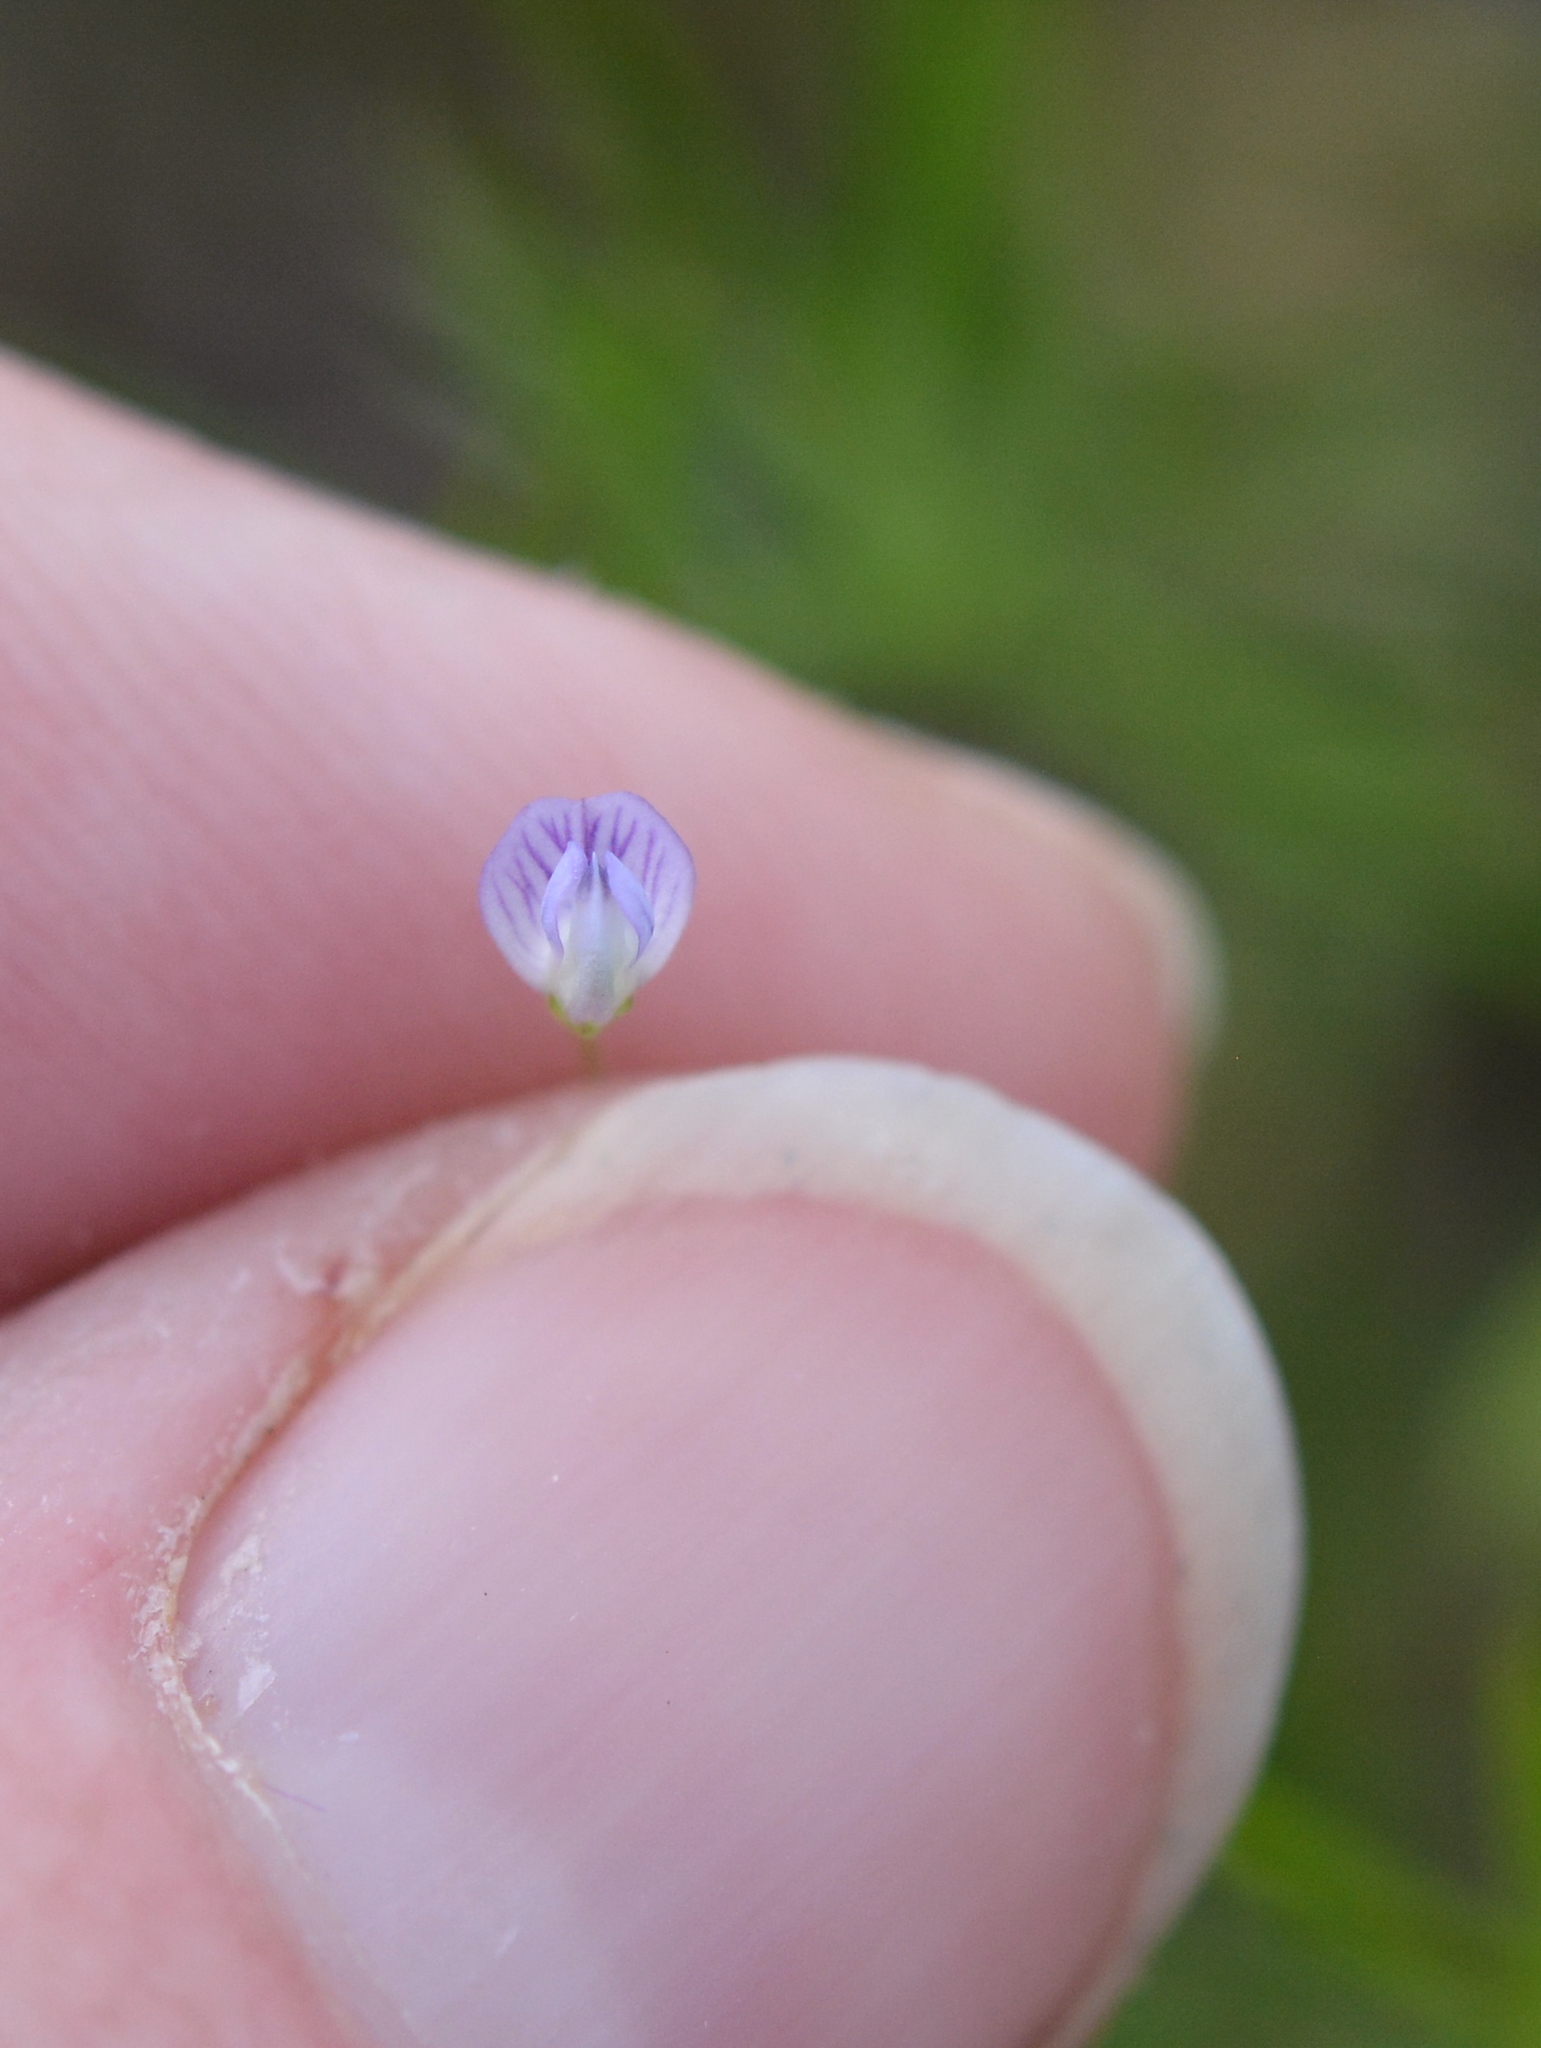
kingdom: Plantae
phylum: Tracheophyta
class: Magnoliopsida
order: Fabales
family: Fabaceae
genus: Vicia
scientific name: Vicia tetrasperma
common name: Smooth tare
